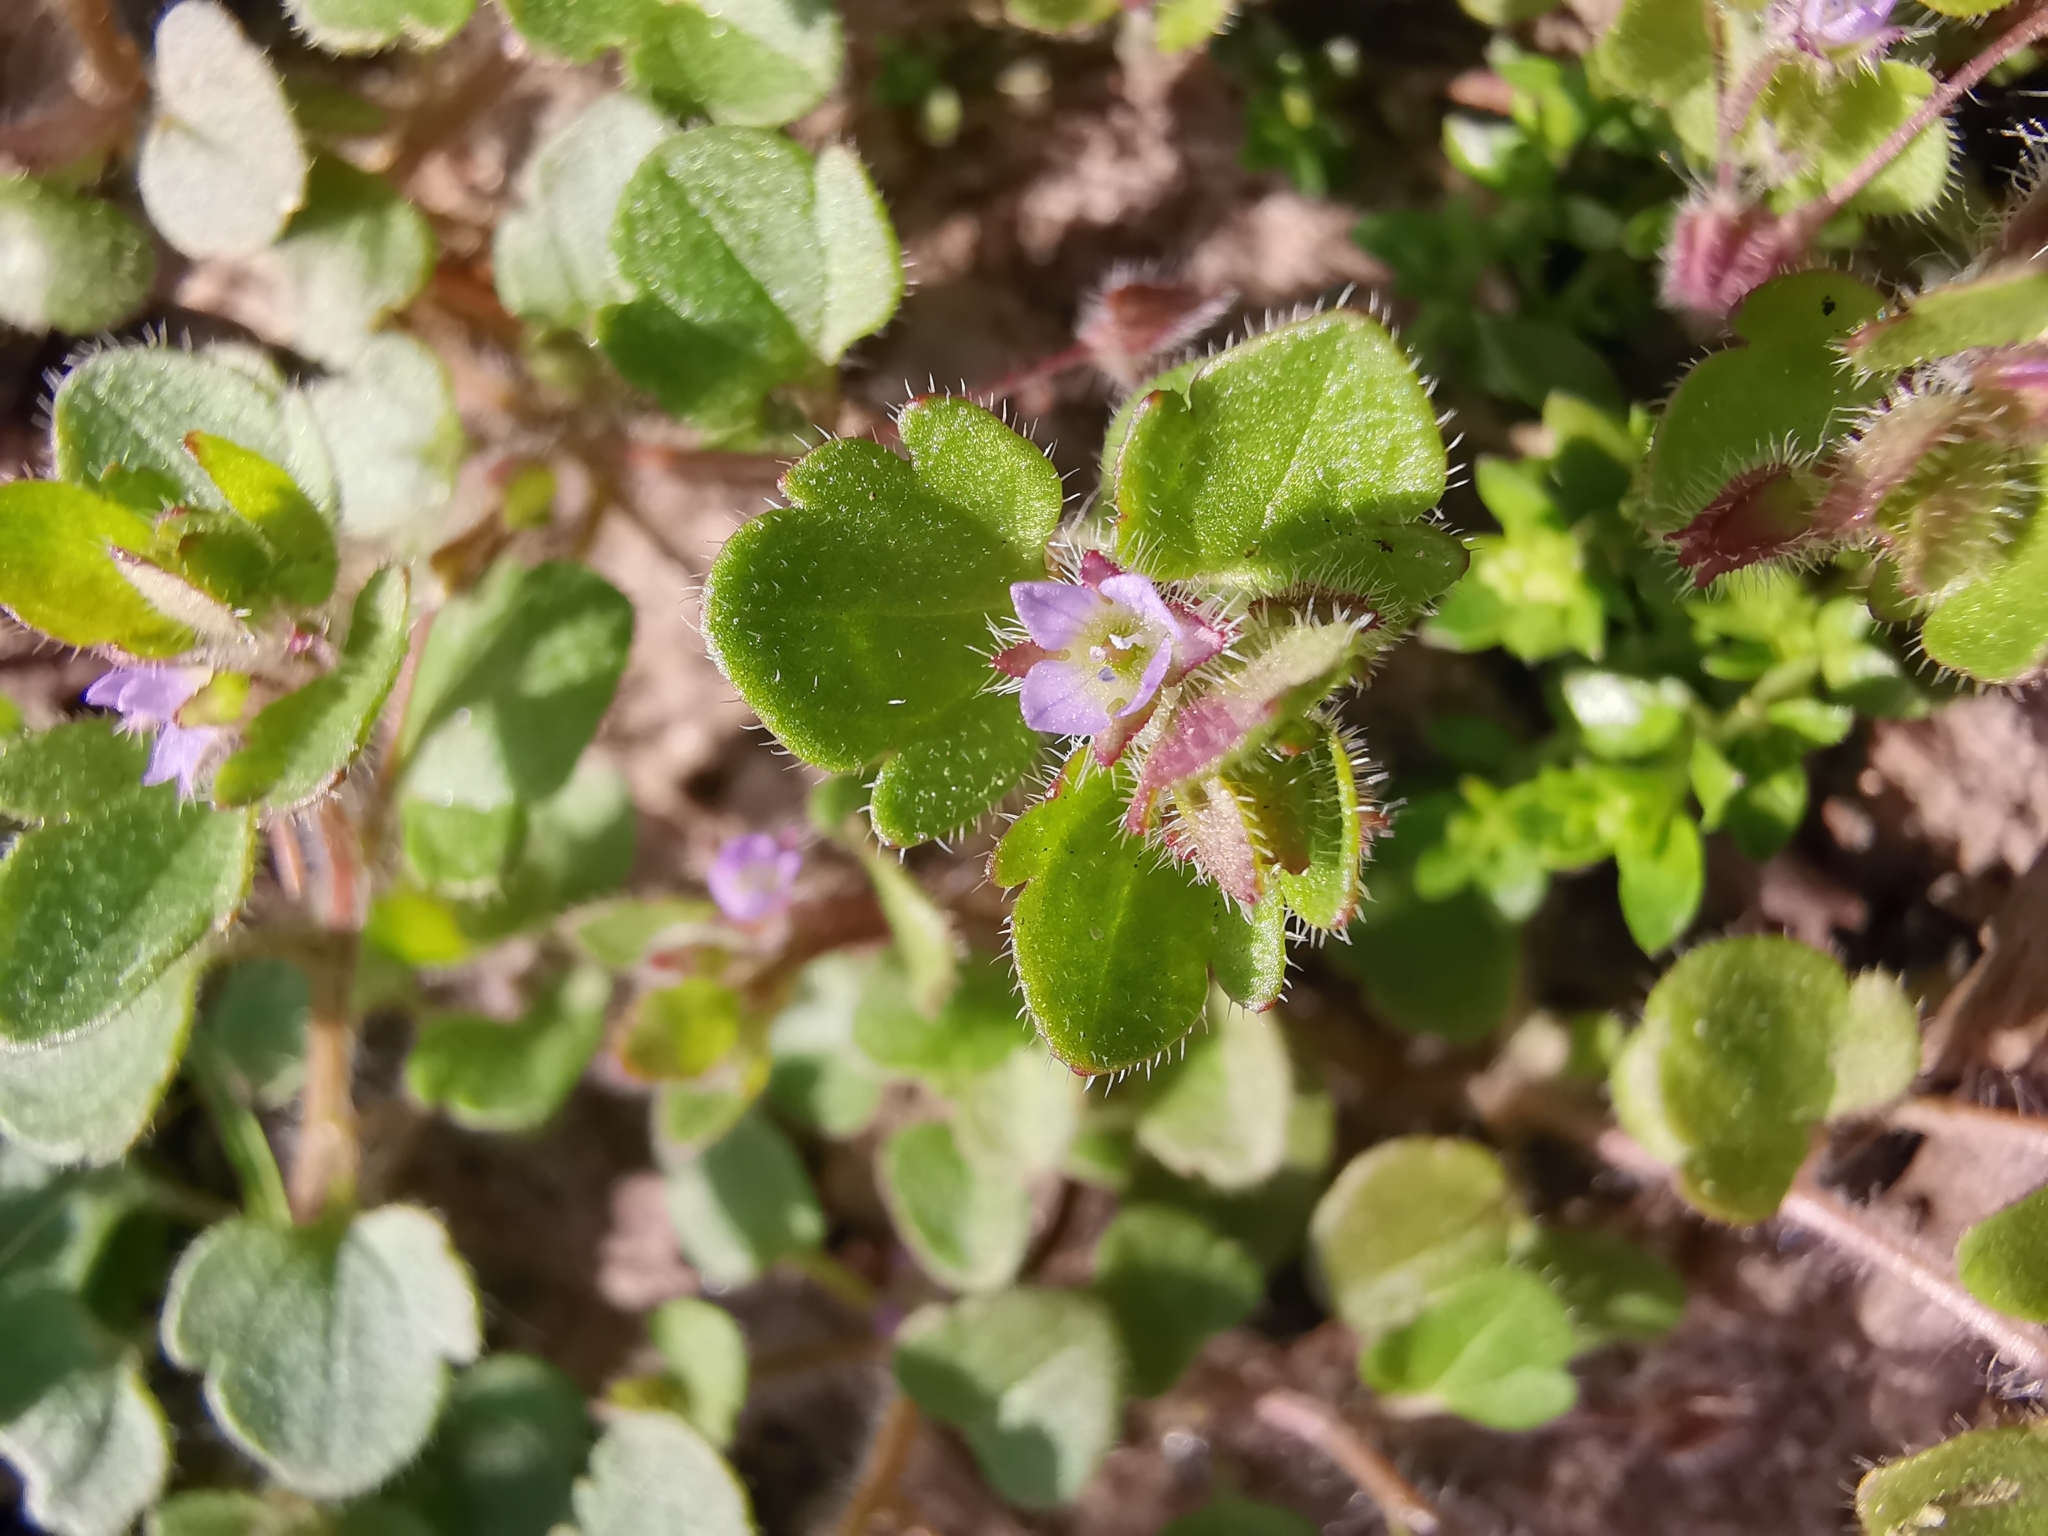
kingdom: Plantae
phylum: Tracheophyta
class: Magnoliopsida
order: Lamiales
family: Plantaginaceae
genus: Veronica
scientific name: Veronica sublobata
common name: False ivy-leaved speedwell
